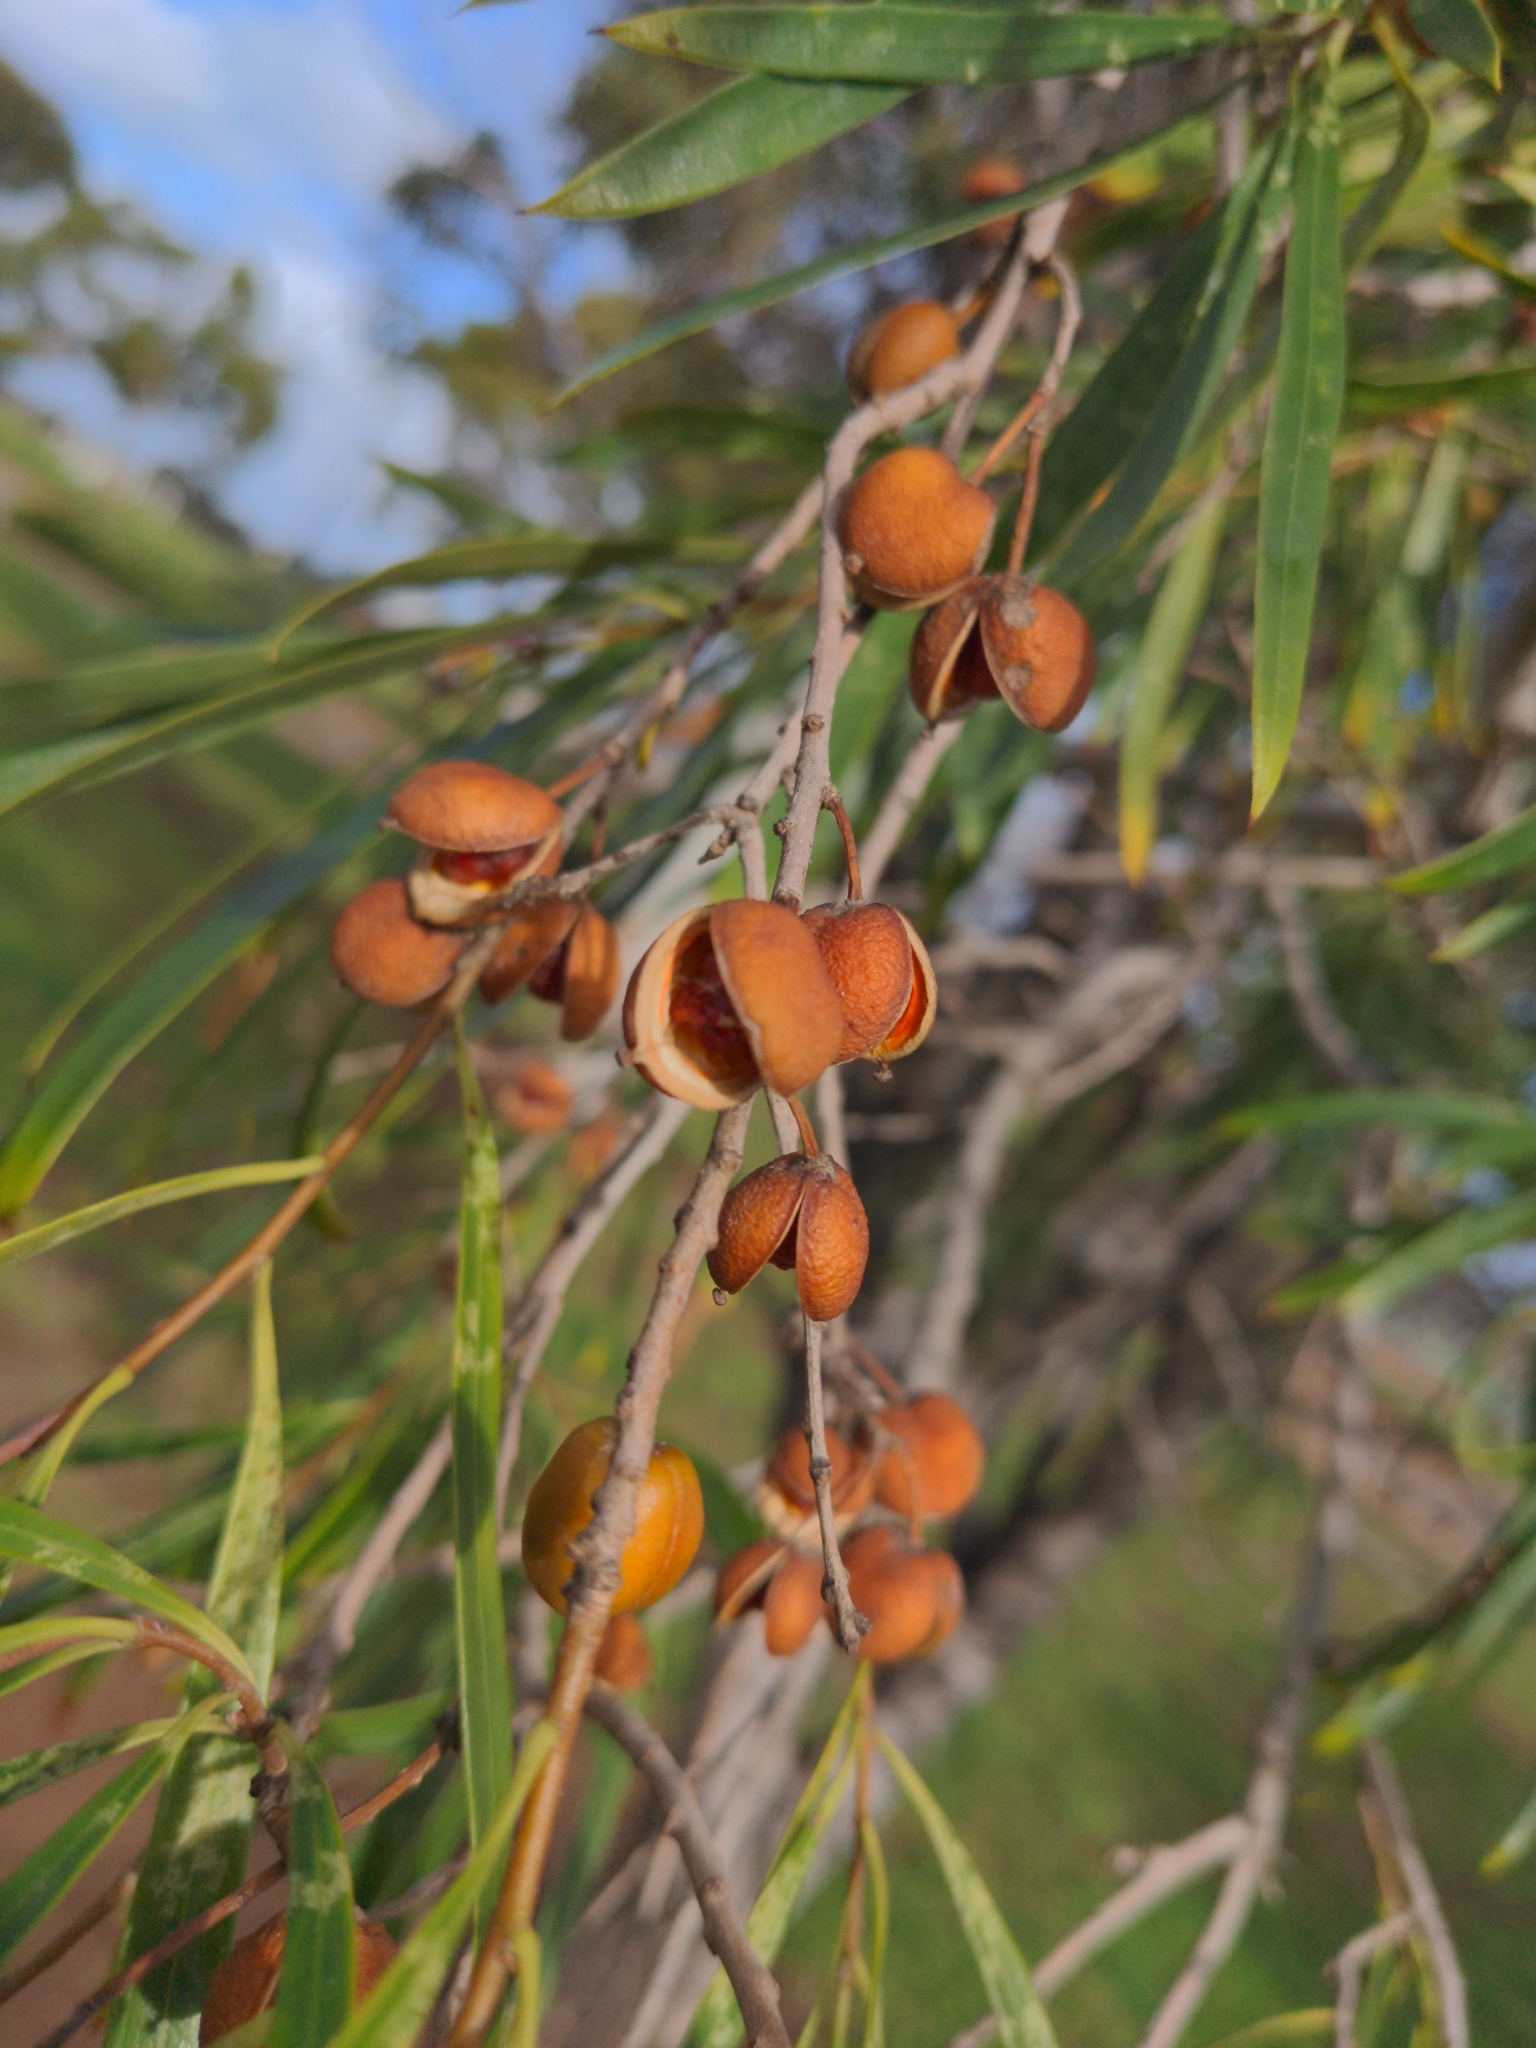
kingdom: Plantae
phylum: Tracheophyta
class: Magnoliopsida
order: Apiales
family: Pittosporaceae
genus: Pittosporum
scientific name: Pittosporum angustifolium
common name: Weeping pittosporum
